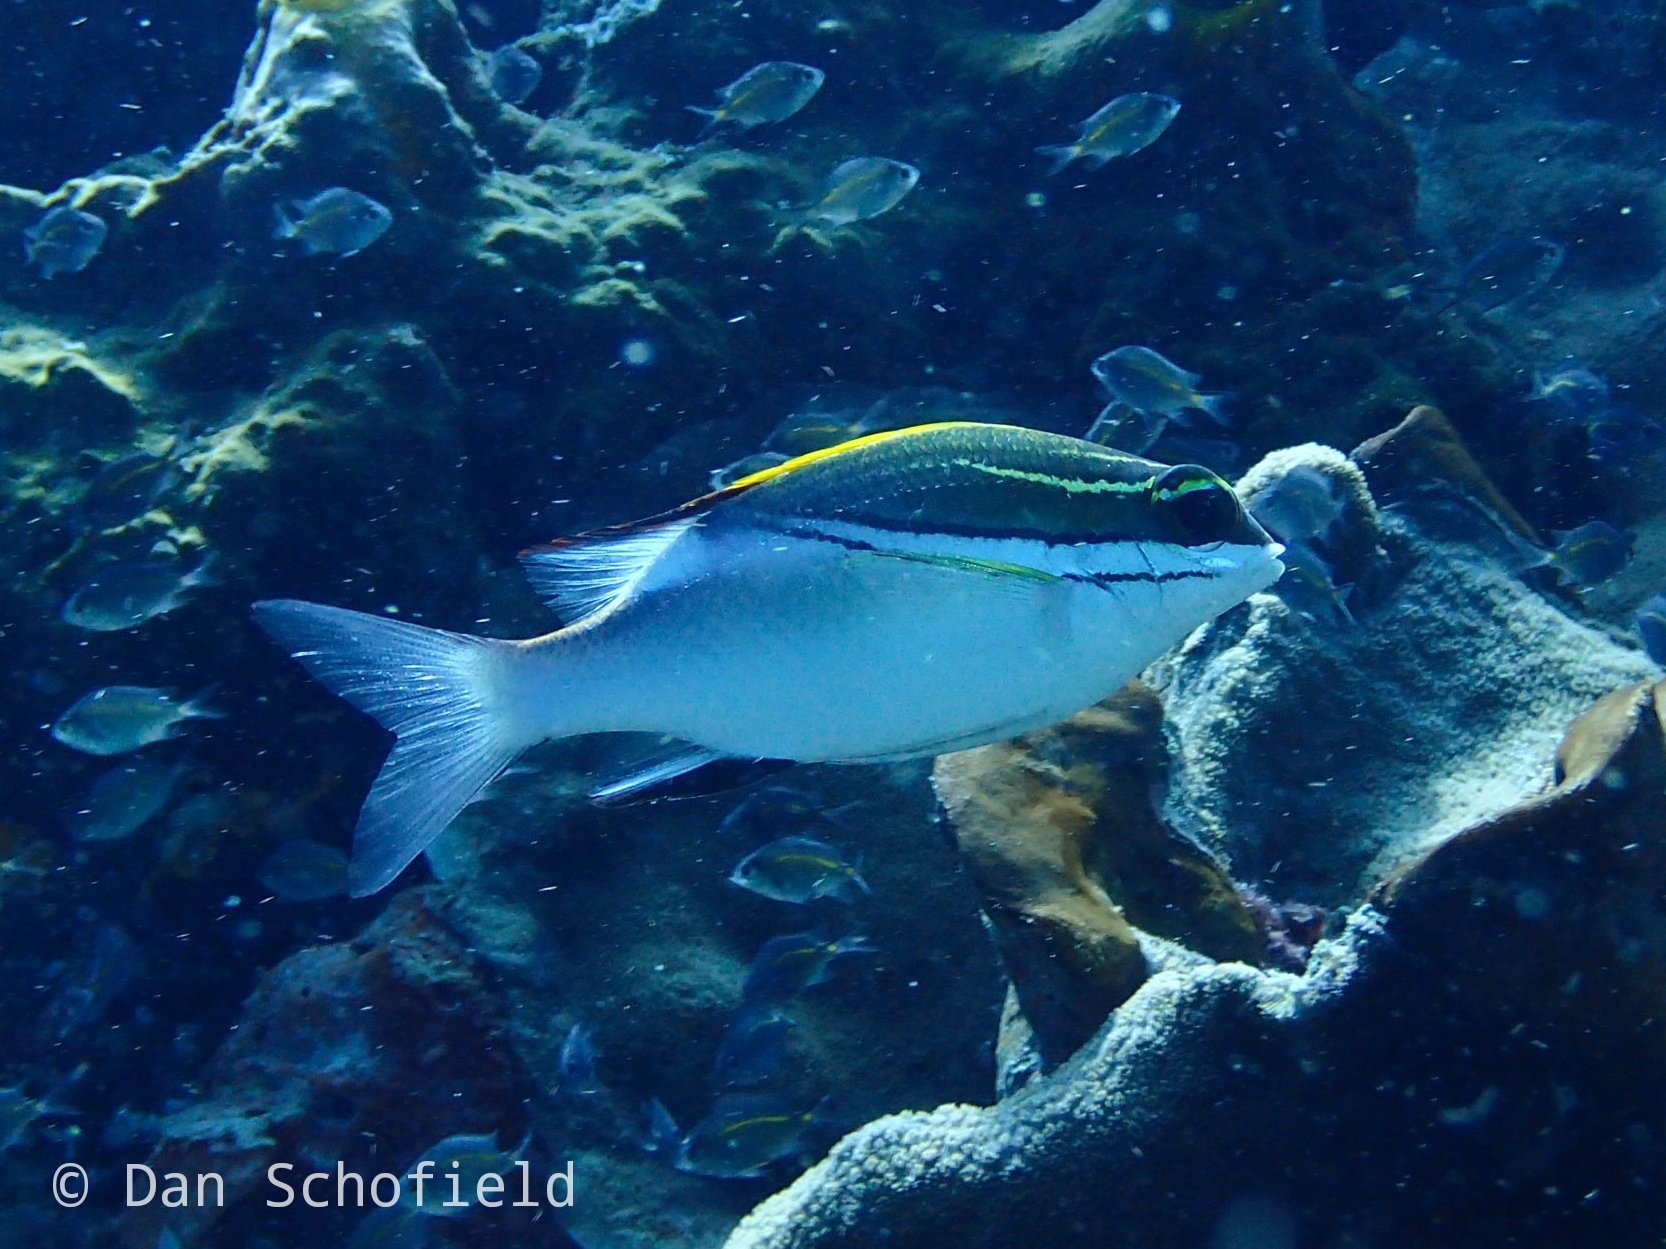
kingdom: Animalia
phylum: Chordata
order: Perciformes
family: Nemipteridae
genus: Scolopsis
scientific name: Scolopsis bilineata
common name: Two-lined monocle bream
